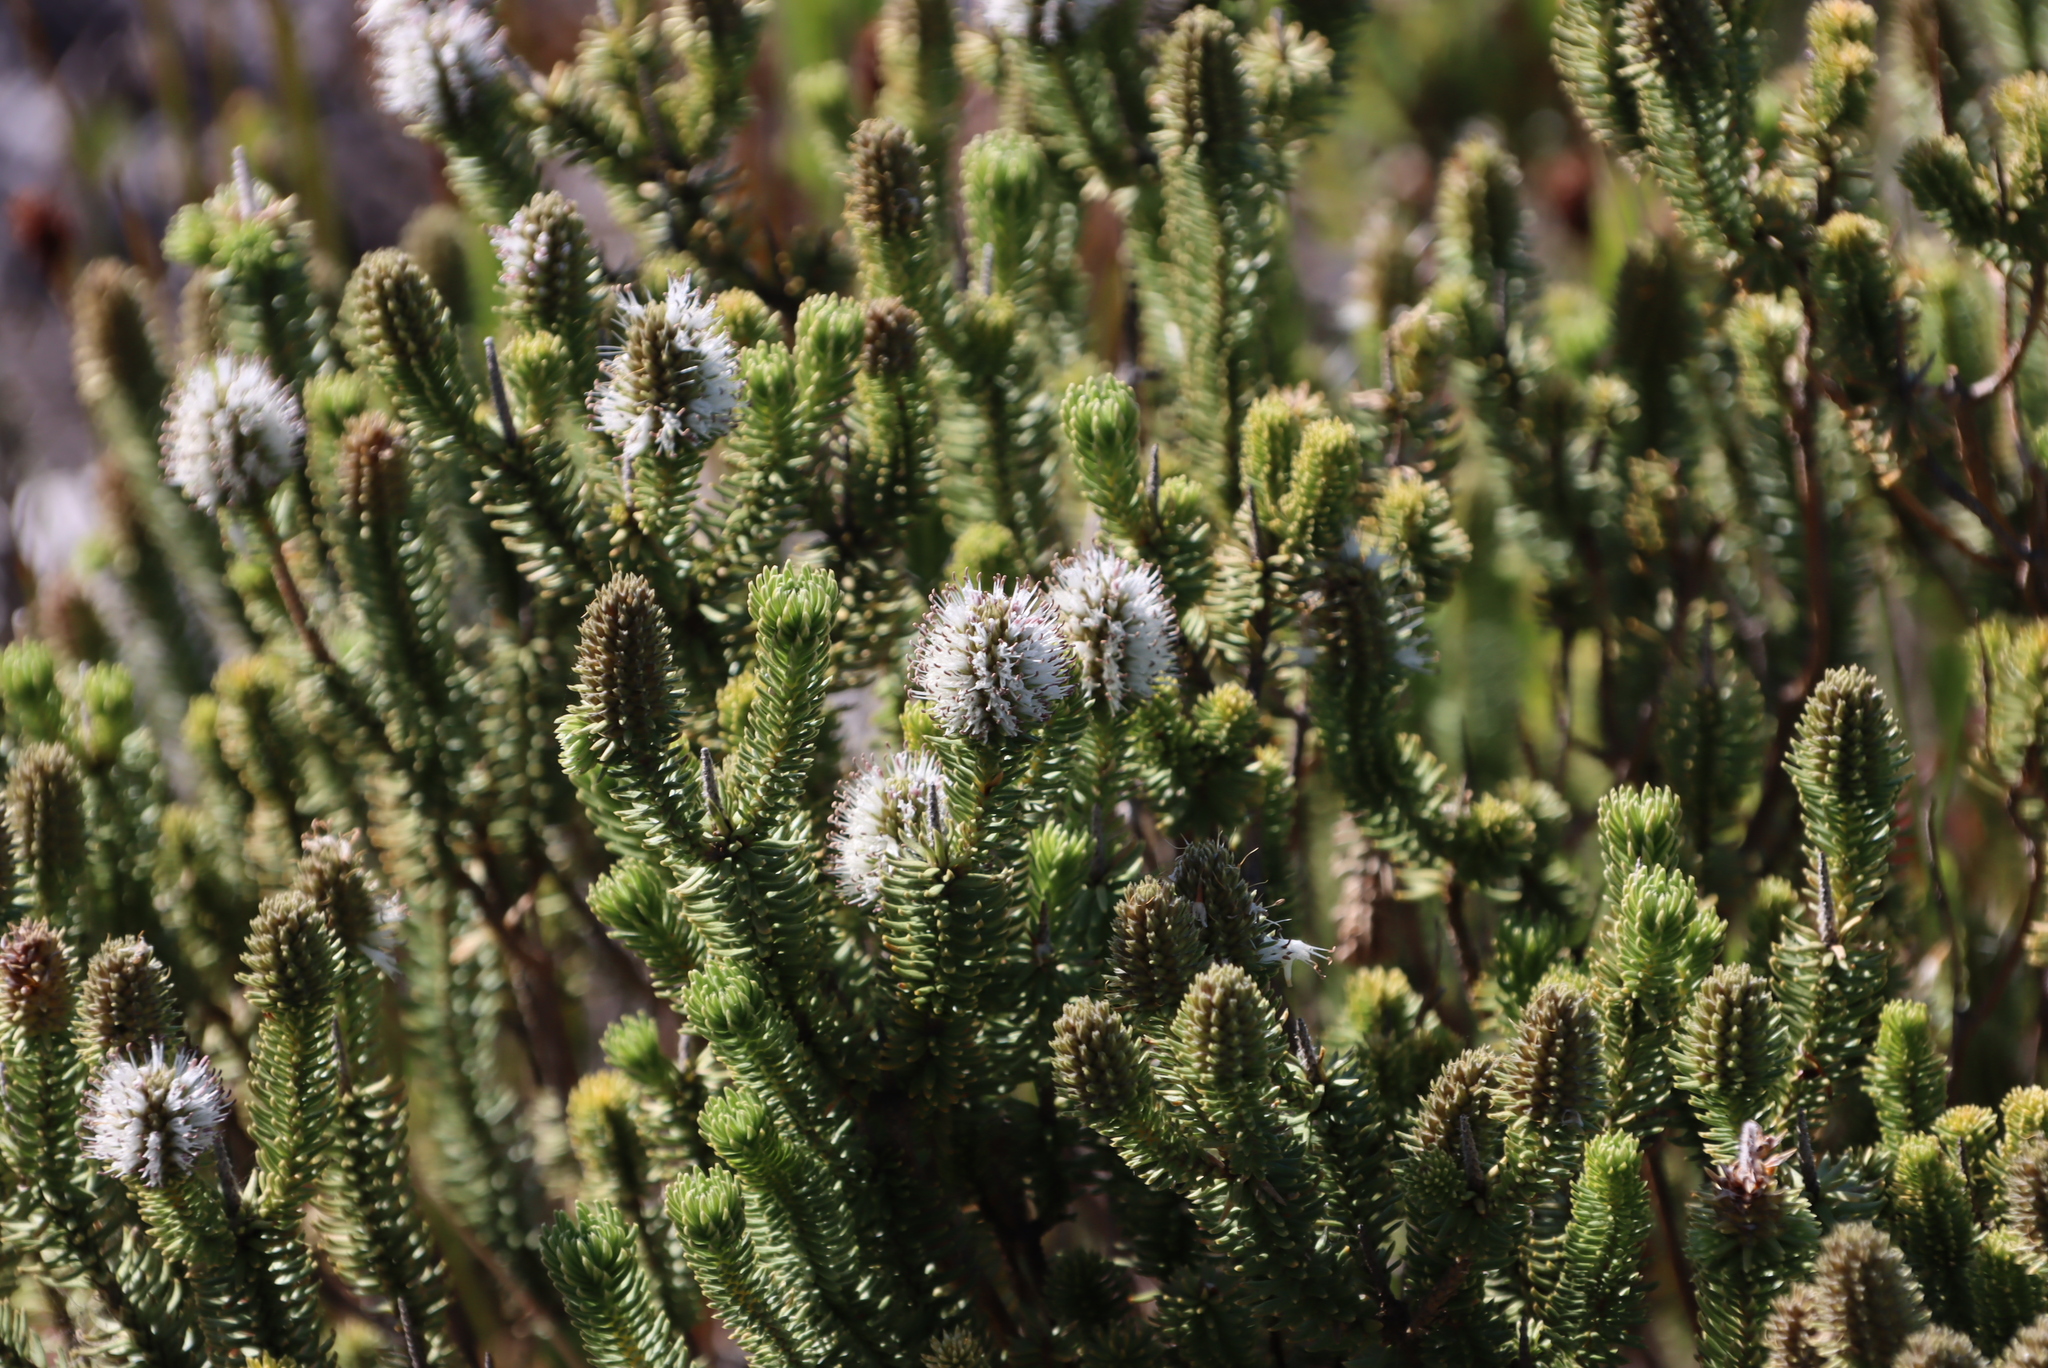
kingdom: Plantae
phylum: Tracheophyta
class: Magnoliopsida
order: Lamiales
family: Stilbaceae
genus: Stilbe
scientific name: Stilbe vestita
